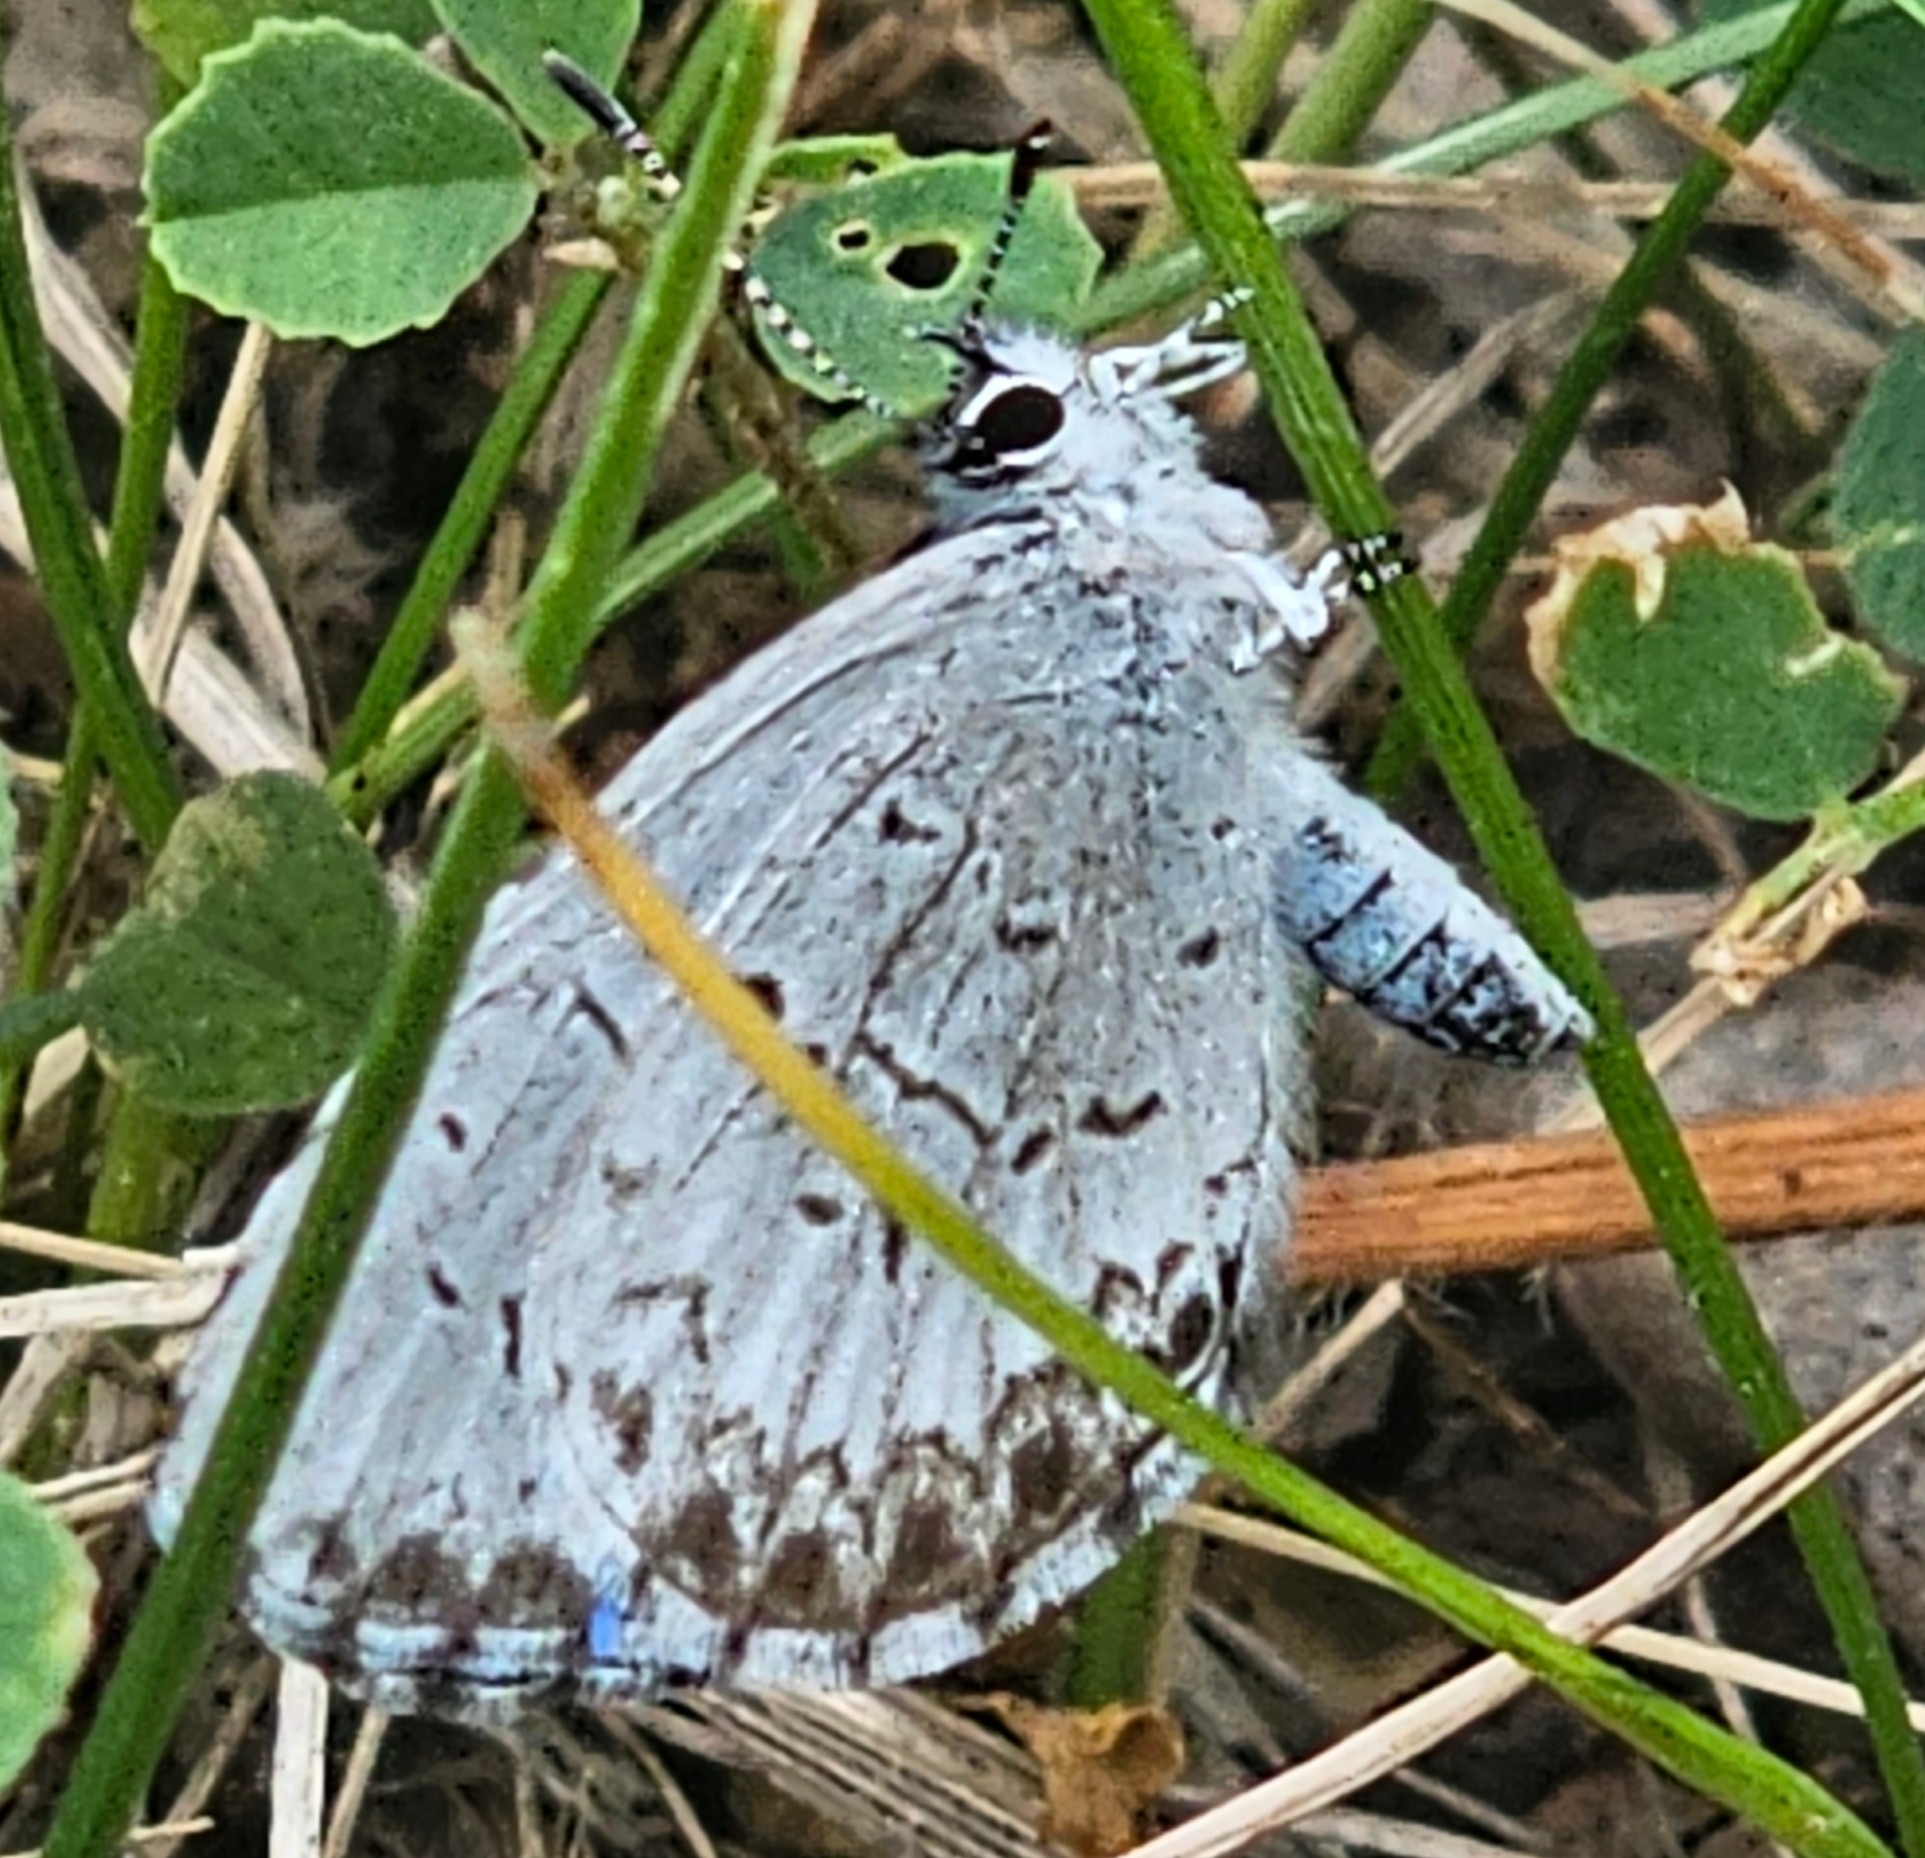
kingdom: Animalia
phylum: Arthropoda
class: Insecta
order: Lepidoptera
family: Lycaenidae
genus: Celastrina
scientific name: Celastrina lucia
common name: Lucia azure
